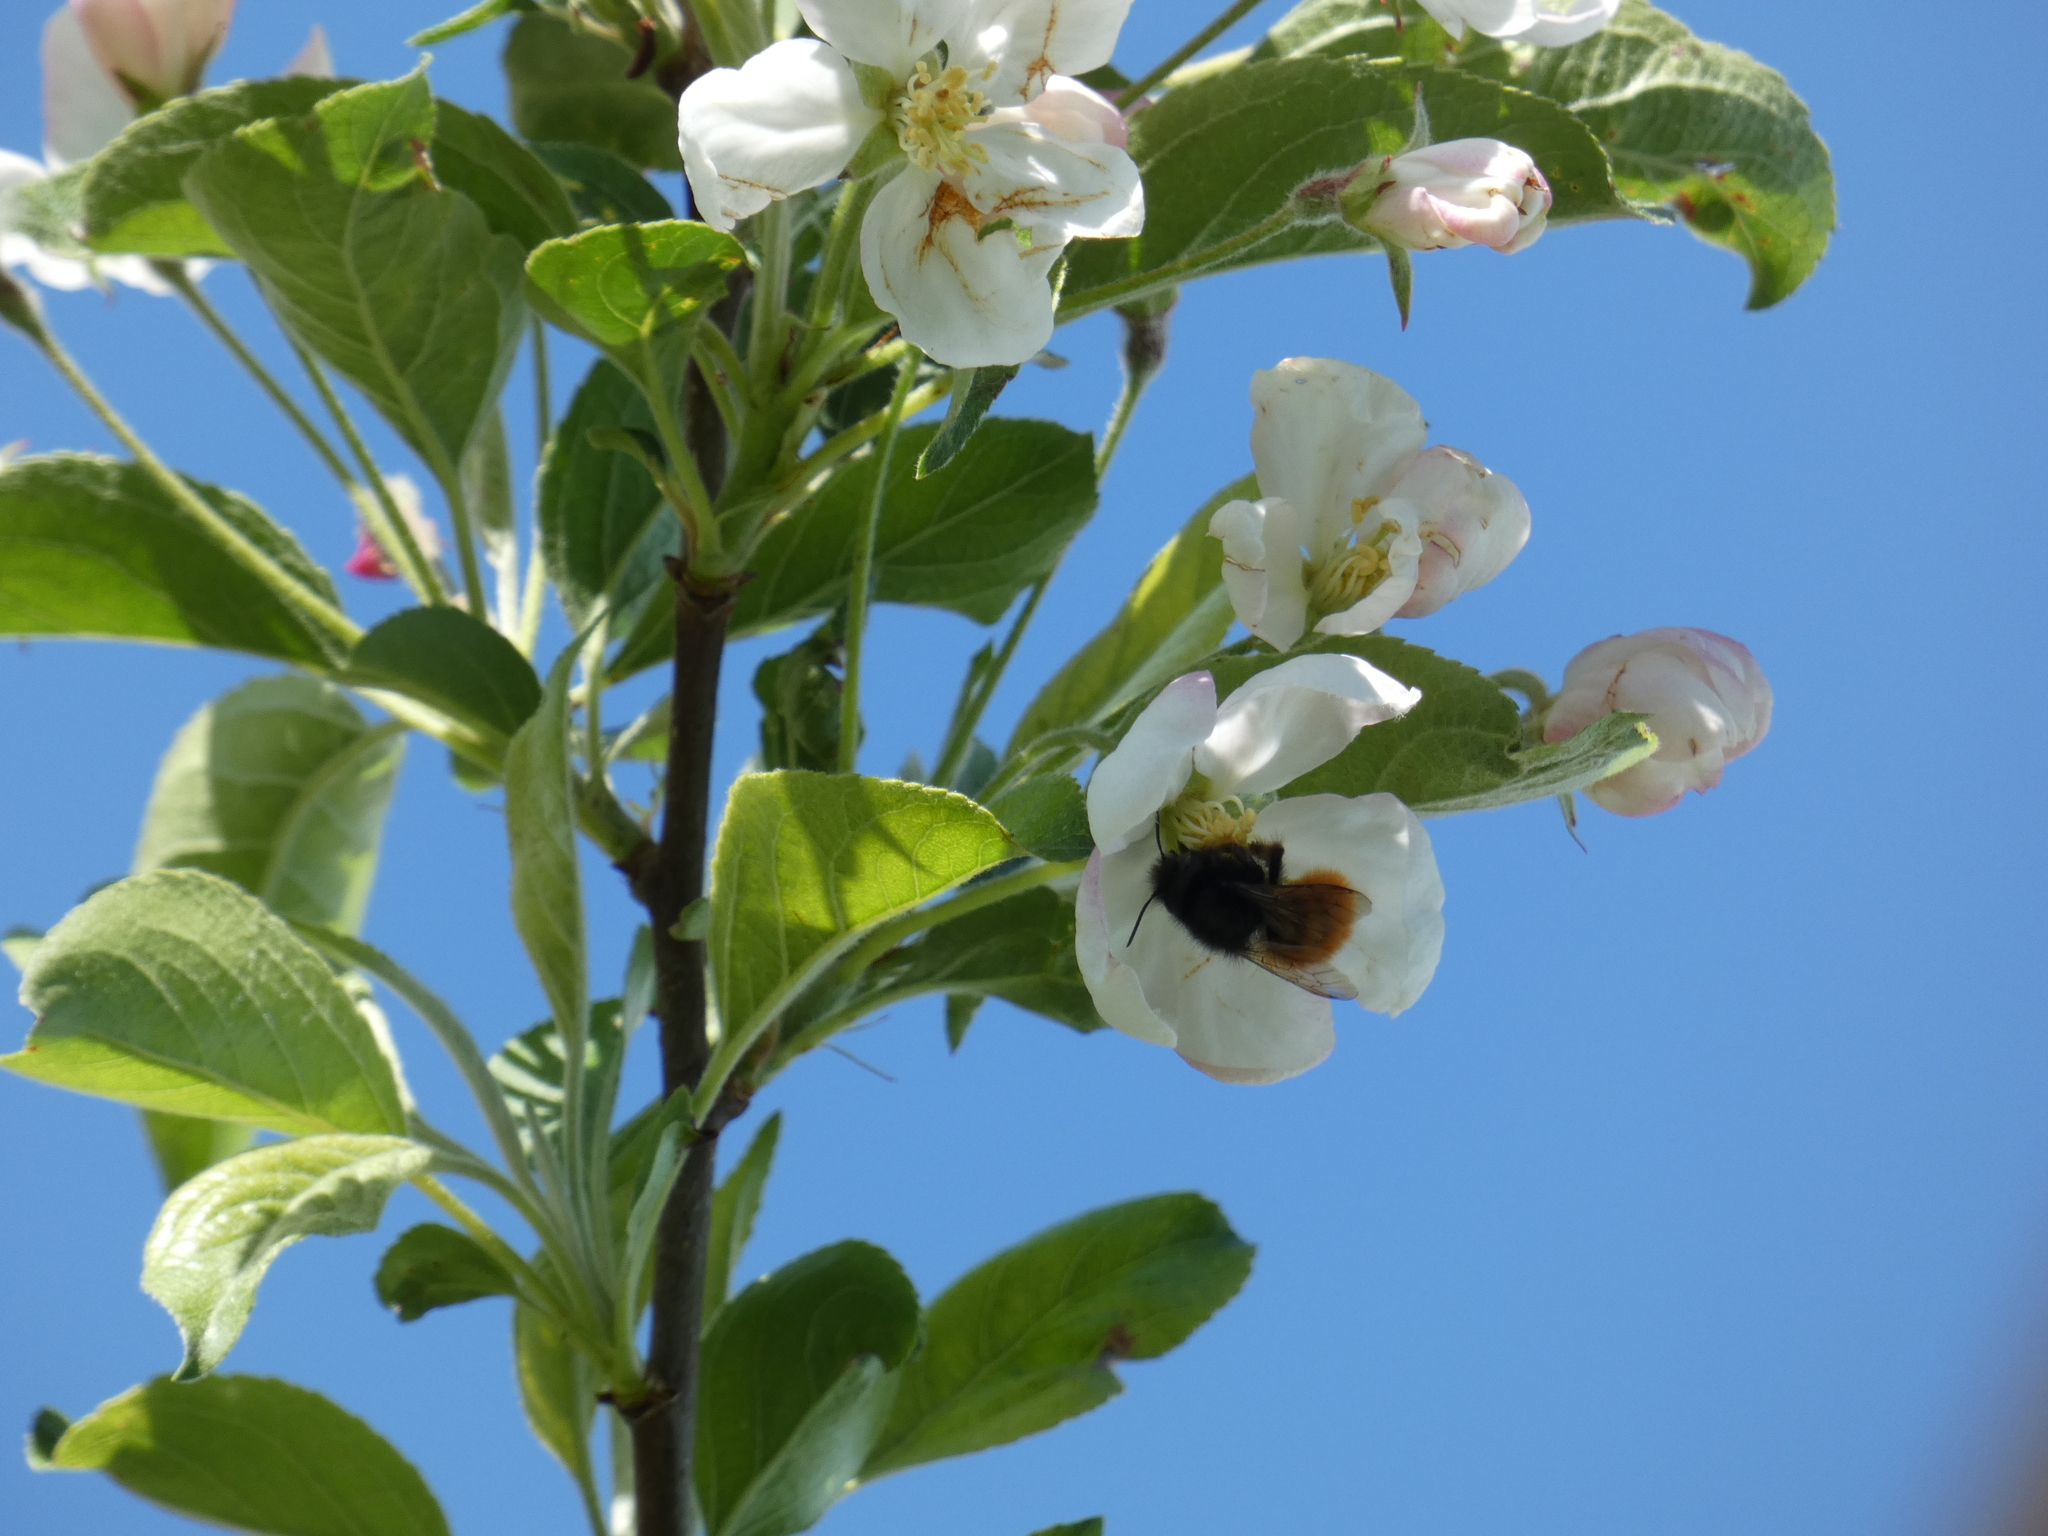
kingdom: Animalia
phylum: Arthropoda
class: Insecta
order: Hymenoptera
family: Megachilidae
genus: Osmia
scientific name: Osmia cornuta
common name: Mason bee
